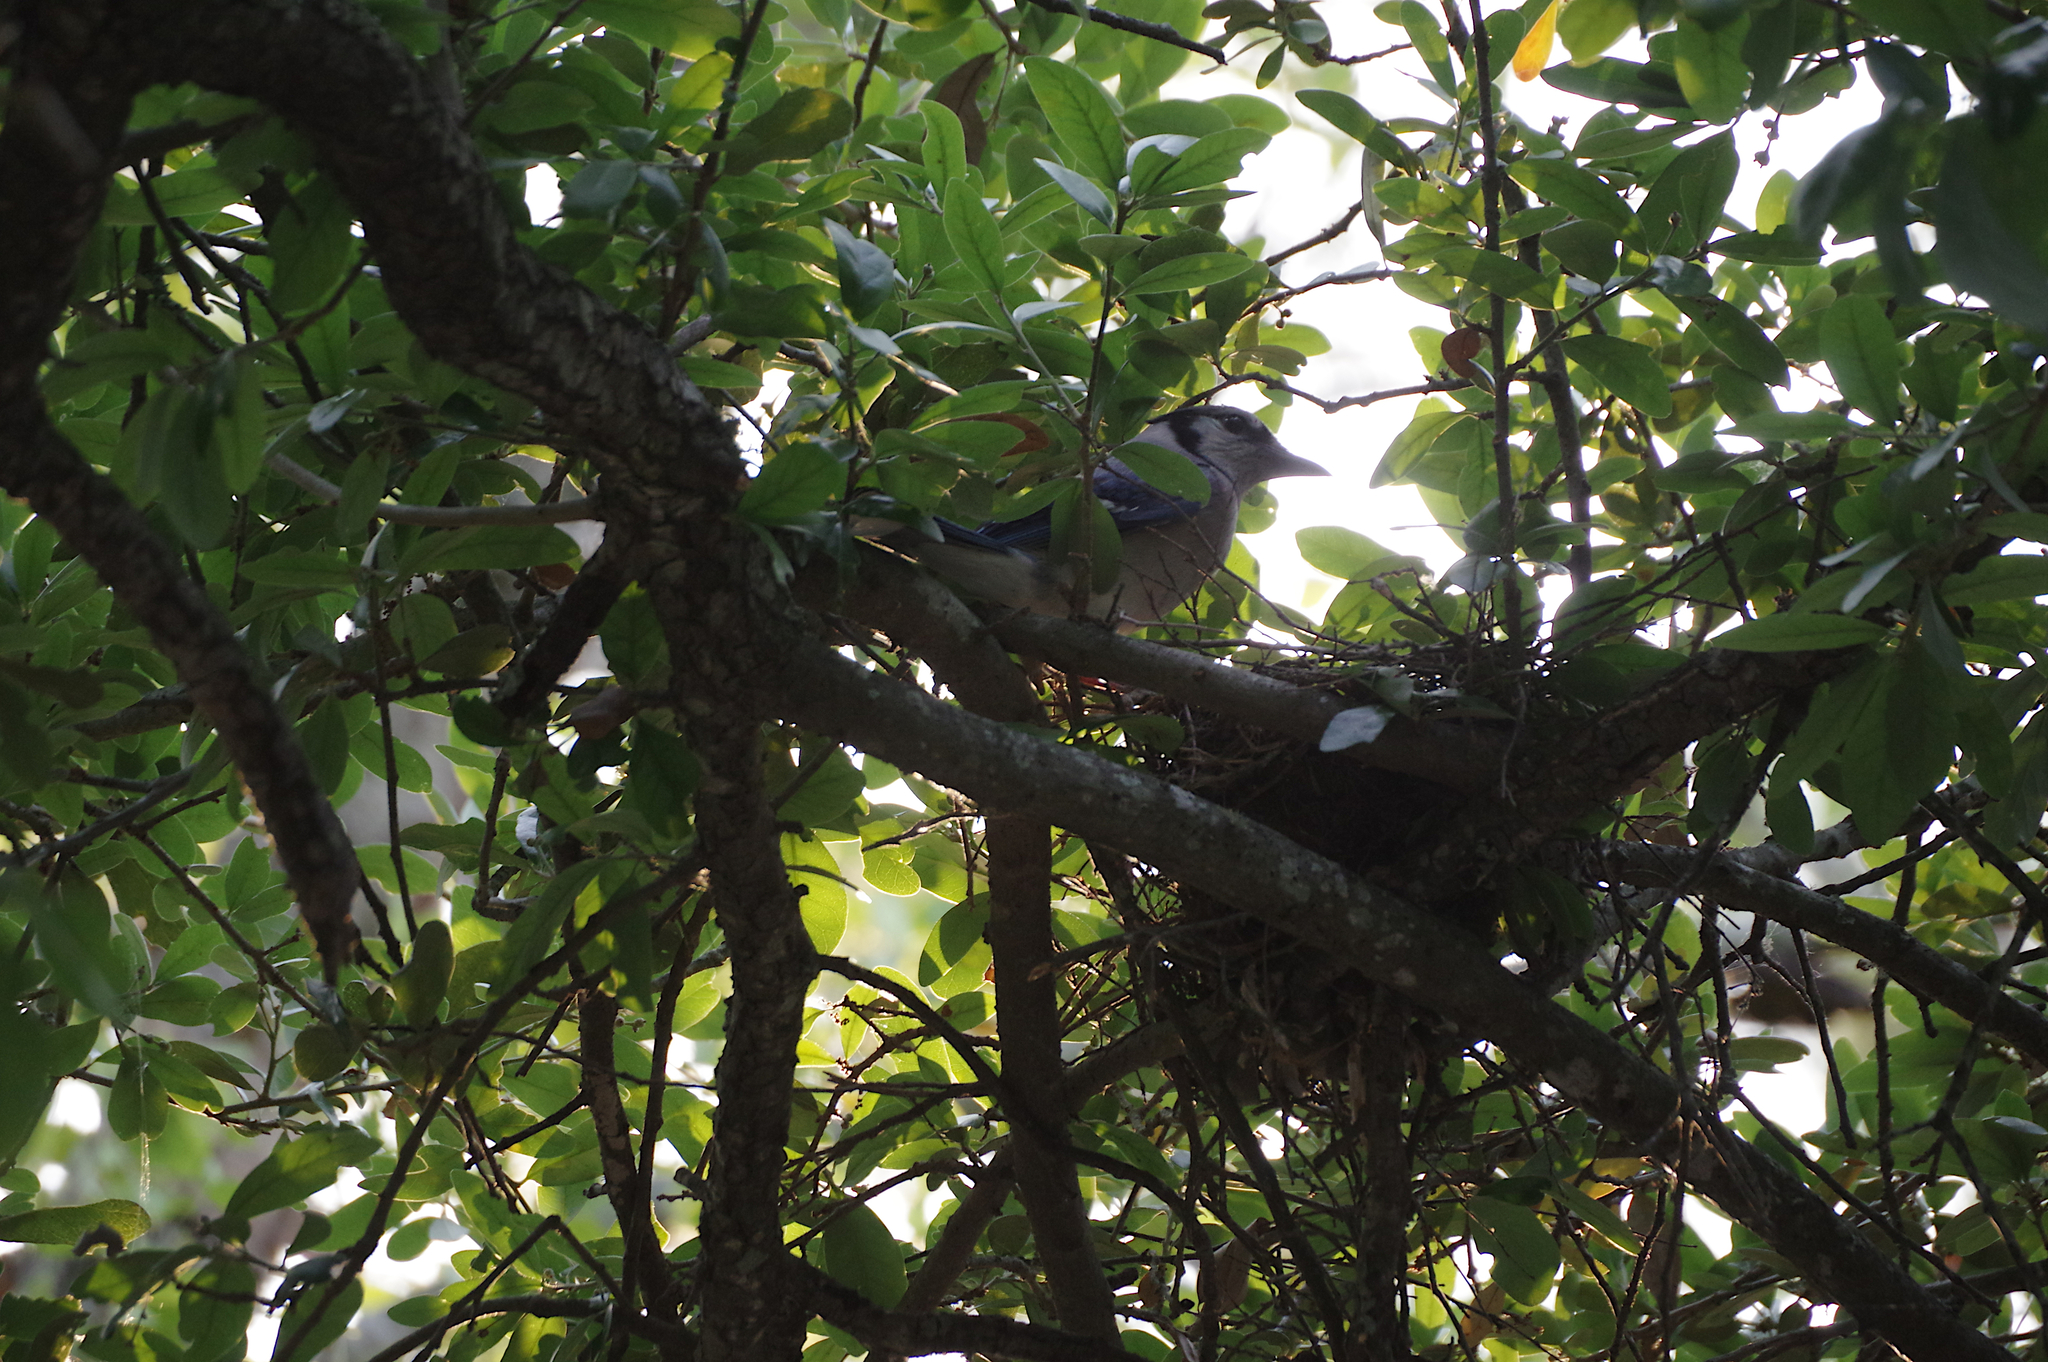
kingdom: Animalia
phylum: Chordata
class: Aves
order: Passeriformes
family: Corvidae
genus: Cyanocitta
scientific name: Cyanocitta cristata
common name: Blue jay
